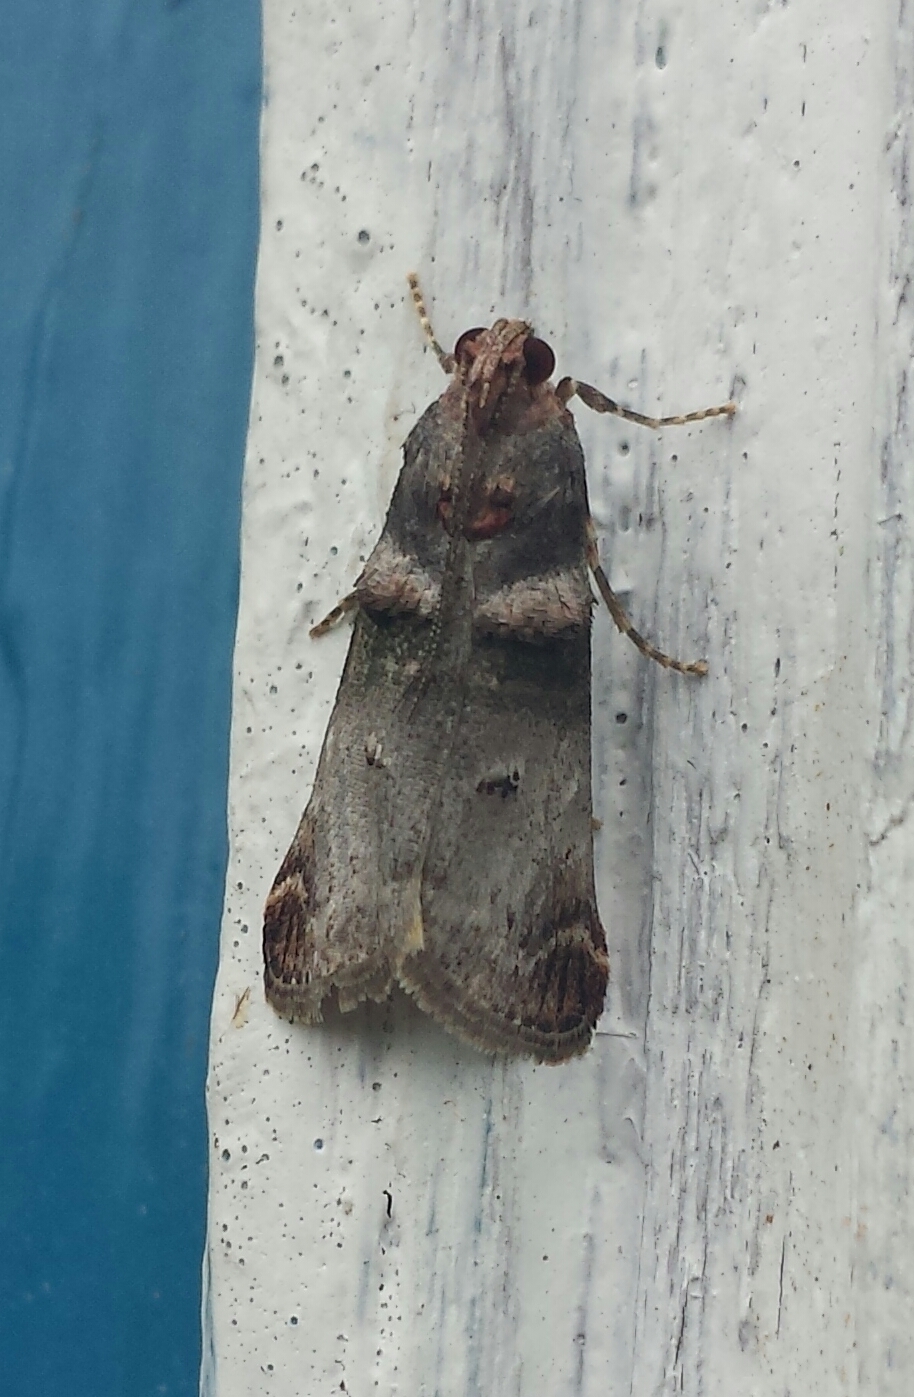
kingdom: Animalia
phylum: Arthropoda
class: Insecta
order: Lepidoptera
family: Pyralidae
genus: Oneida
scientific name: Oneida lunulalis
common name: Orange-tufted oneida moth
